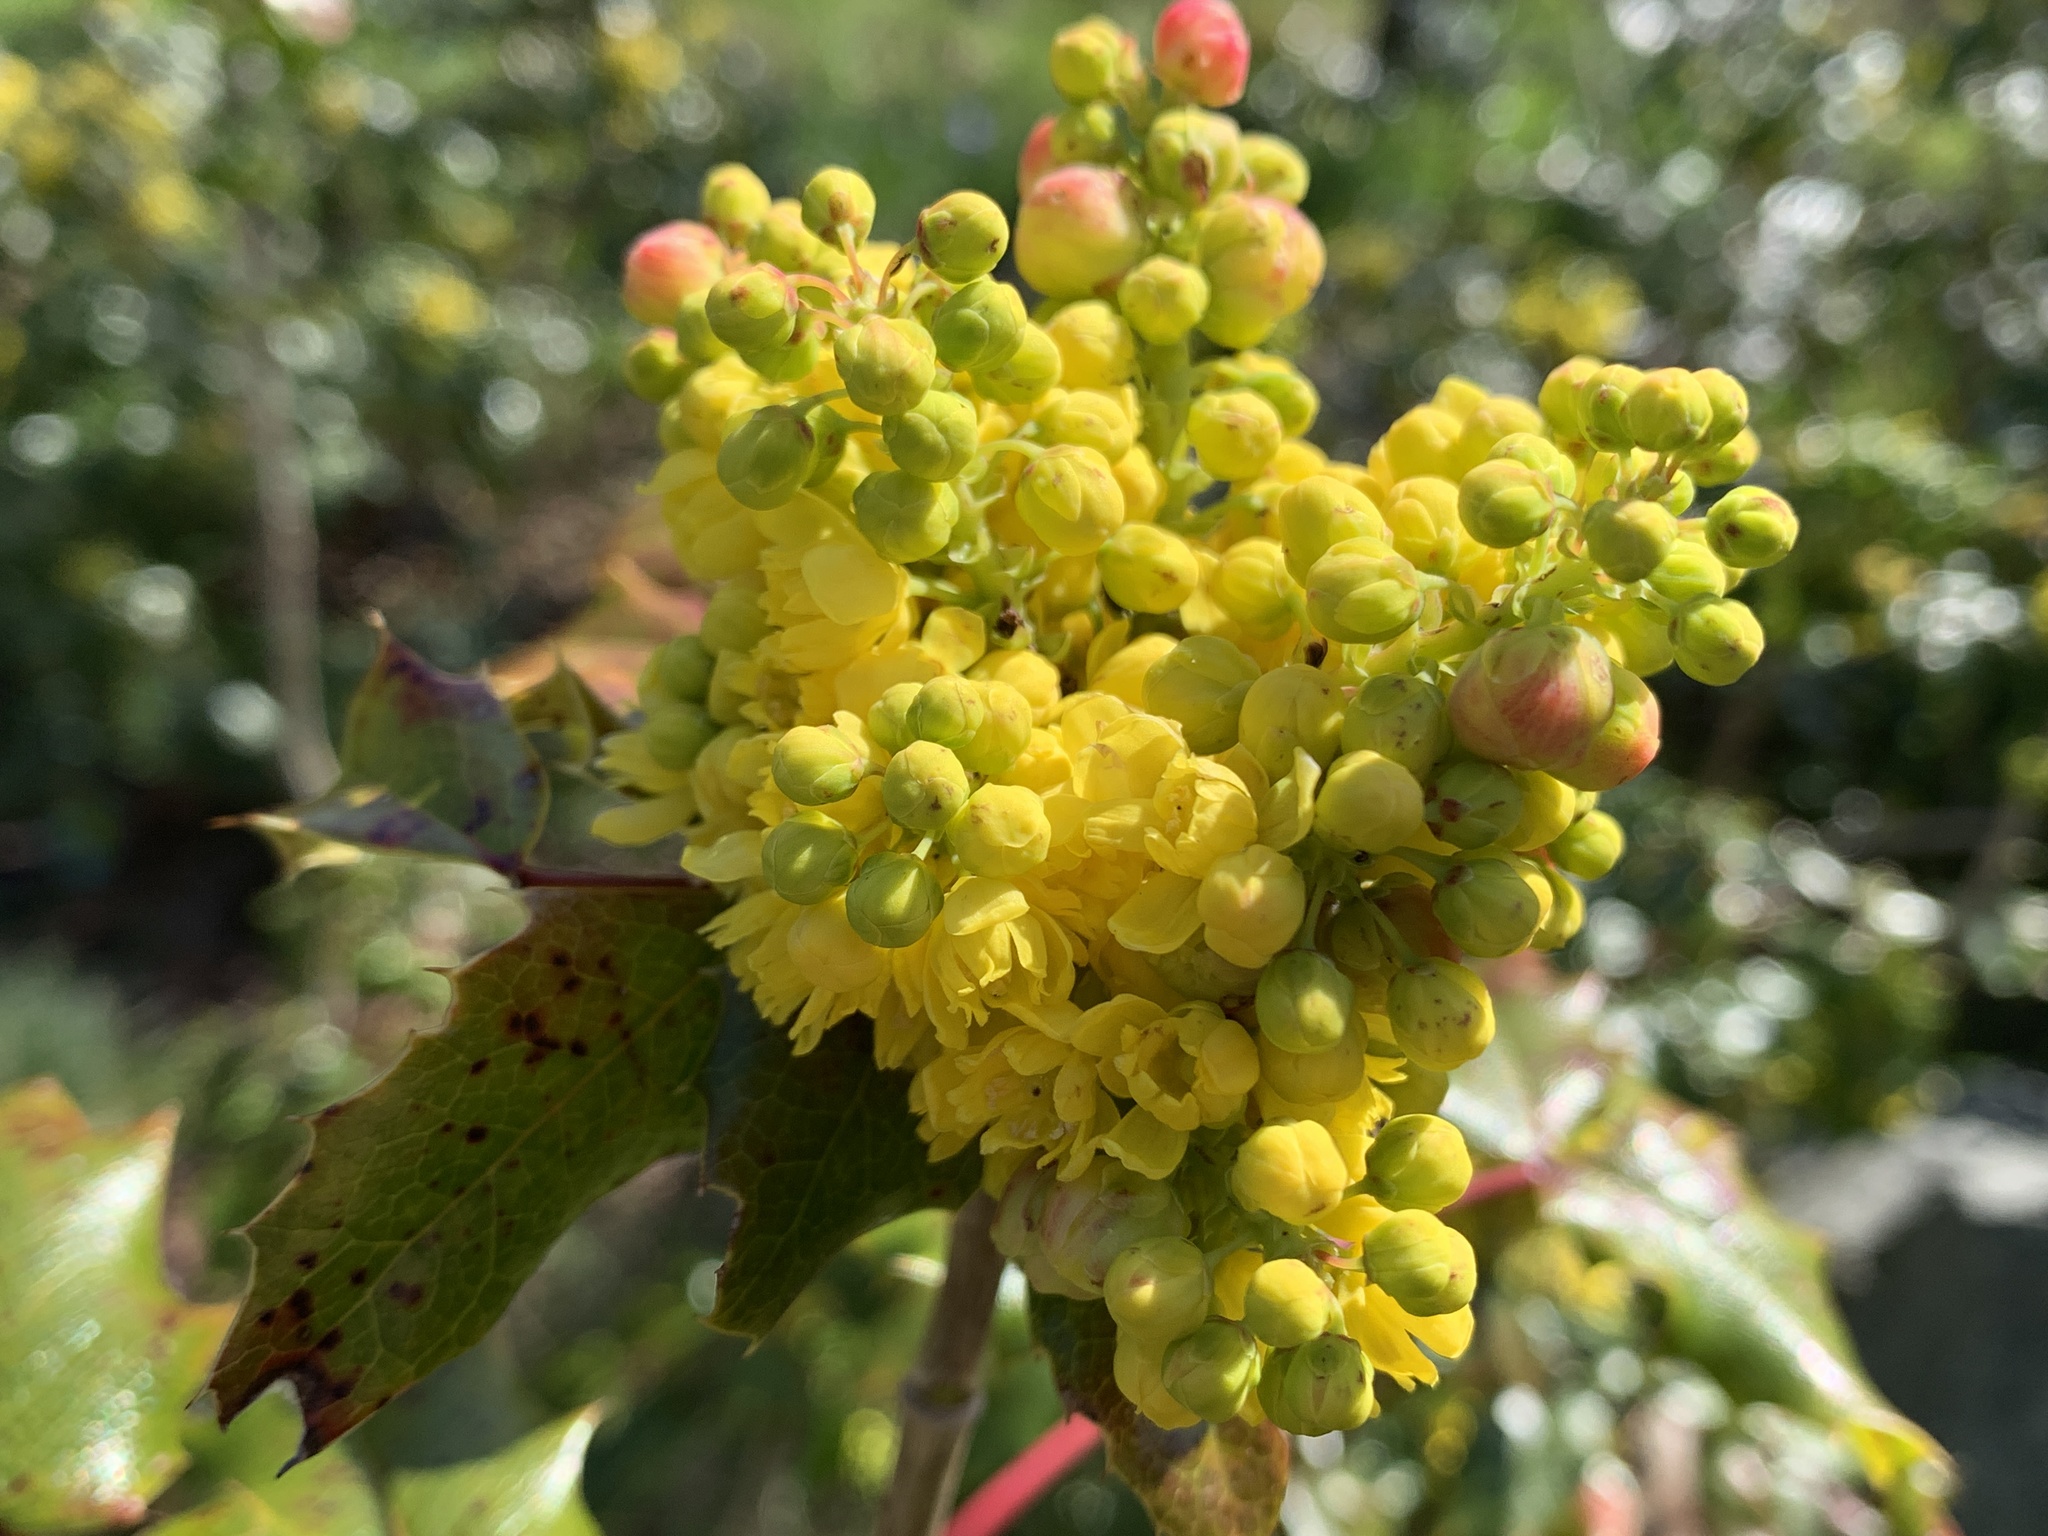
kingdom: Plantae
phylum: Tracheophyta
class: Magnoliopsida
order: Ranunculales
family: Berberidaceae
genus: Mahonia
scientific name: Mahonia aquifolium
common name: Oregon-grape
